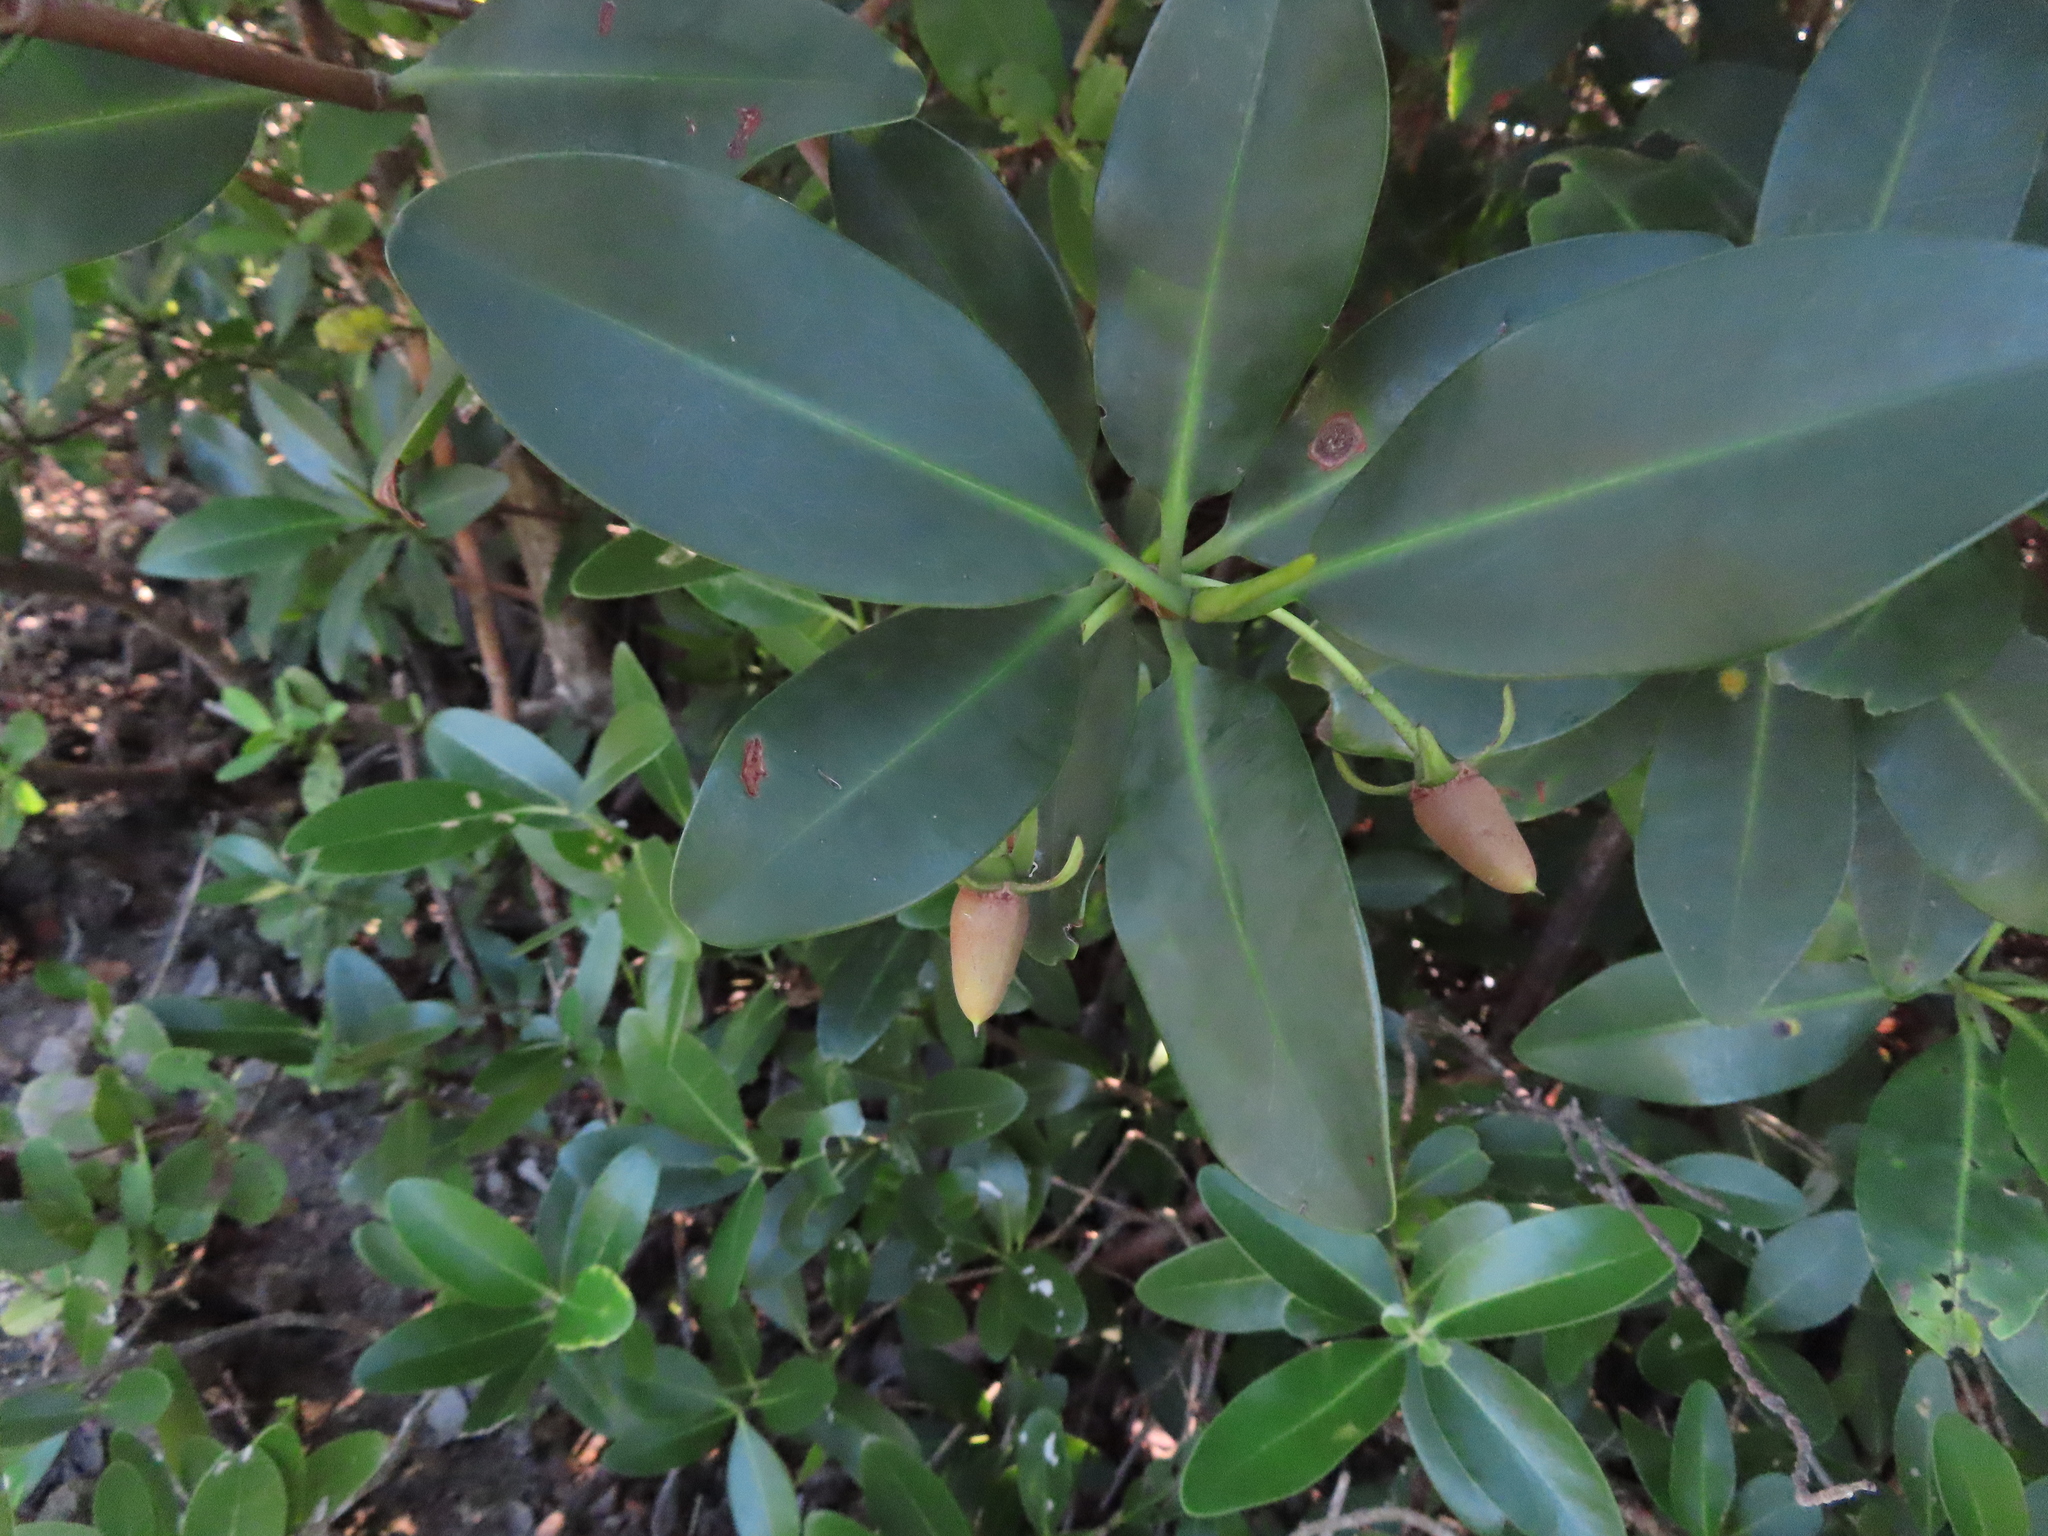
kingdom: Plantae
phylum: Tracheophyta
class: Magnoliopsida
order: Malpighiales
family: Rhizophoraceae
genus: Rhizophora
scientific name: Rhizophora mangle
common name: Red mangrove
